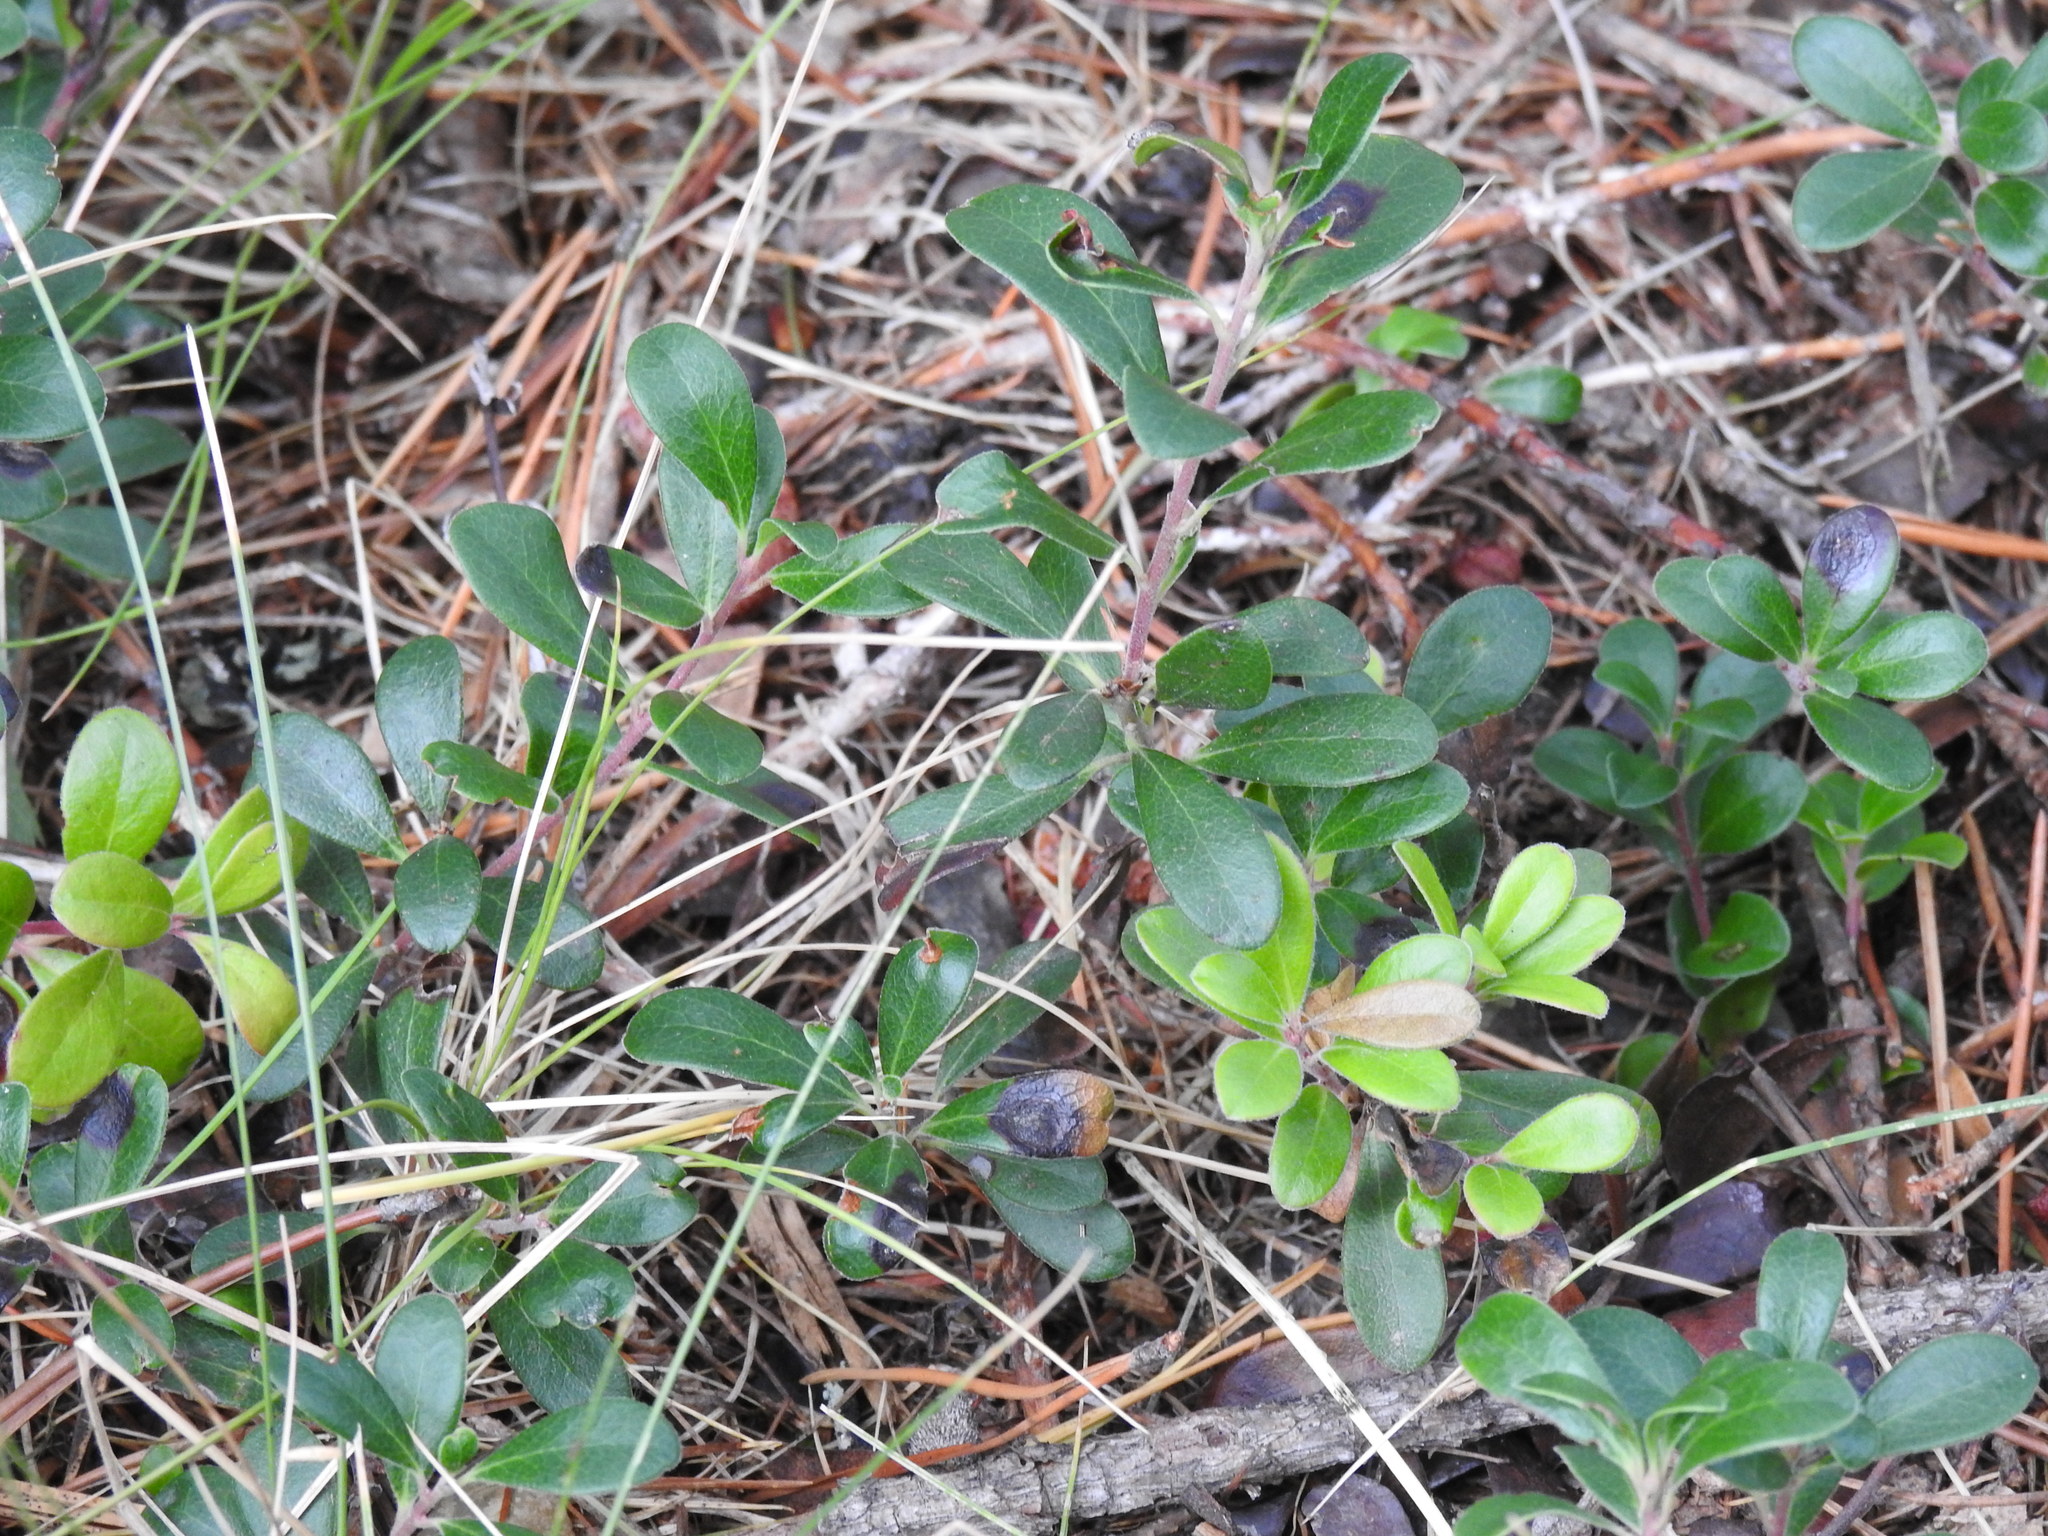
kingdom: Plantae
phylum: Tracheophyta
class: Magnoliopsida
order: Ericales
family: Ericaceae
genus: Arctostaphylos
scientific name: Arctostaphylos uva-ursi
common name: Bearberry
